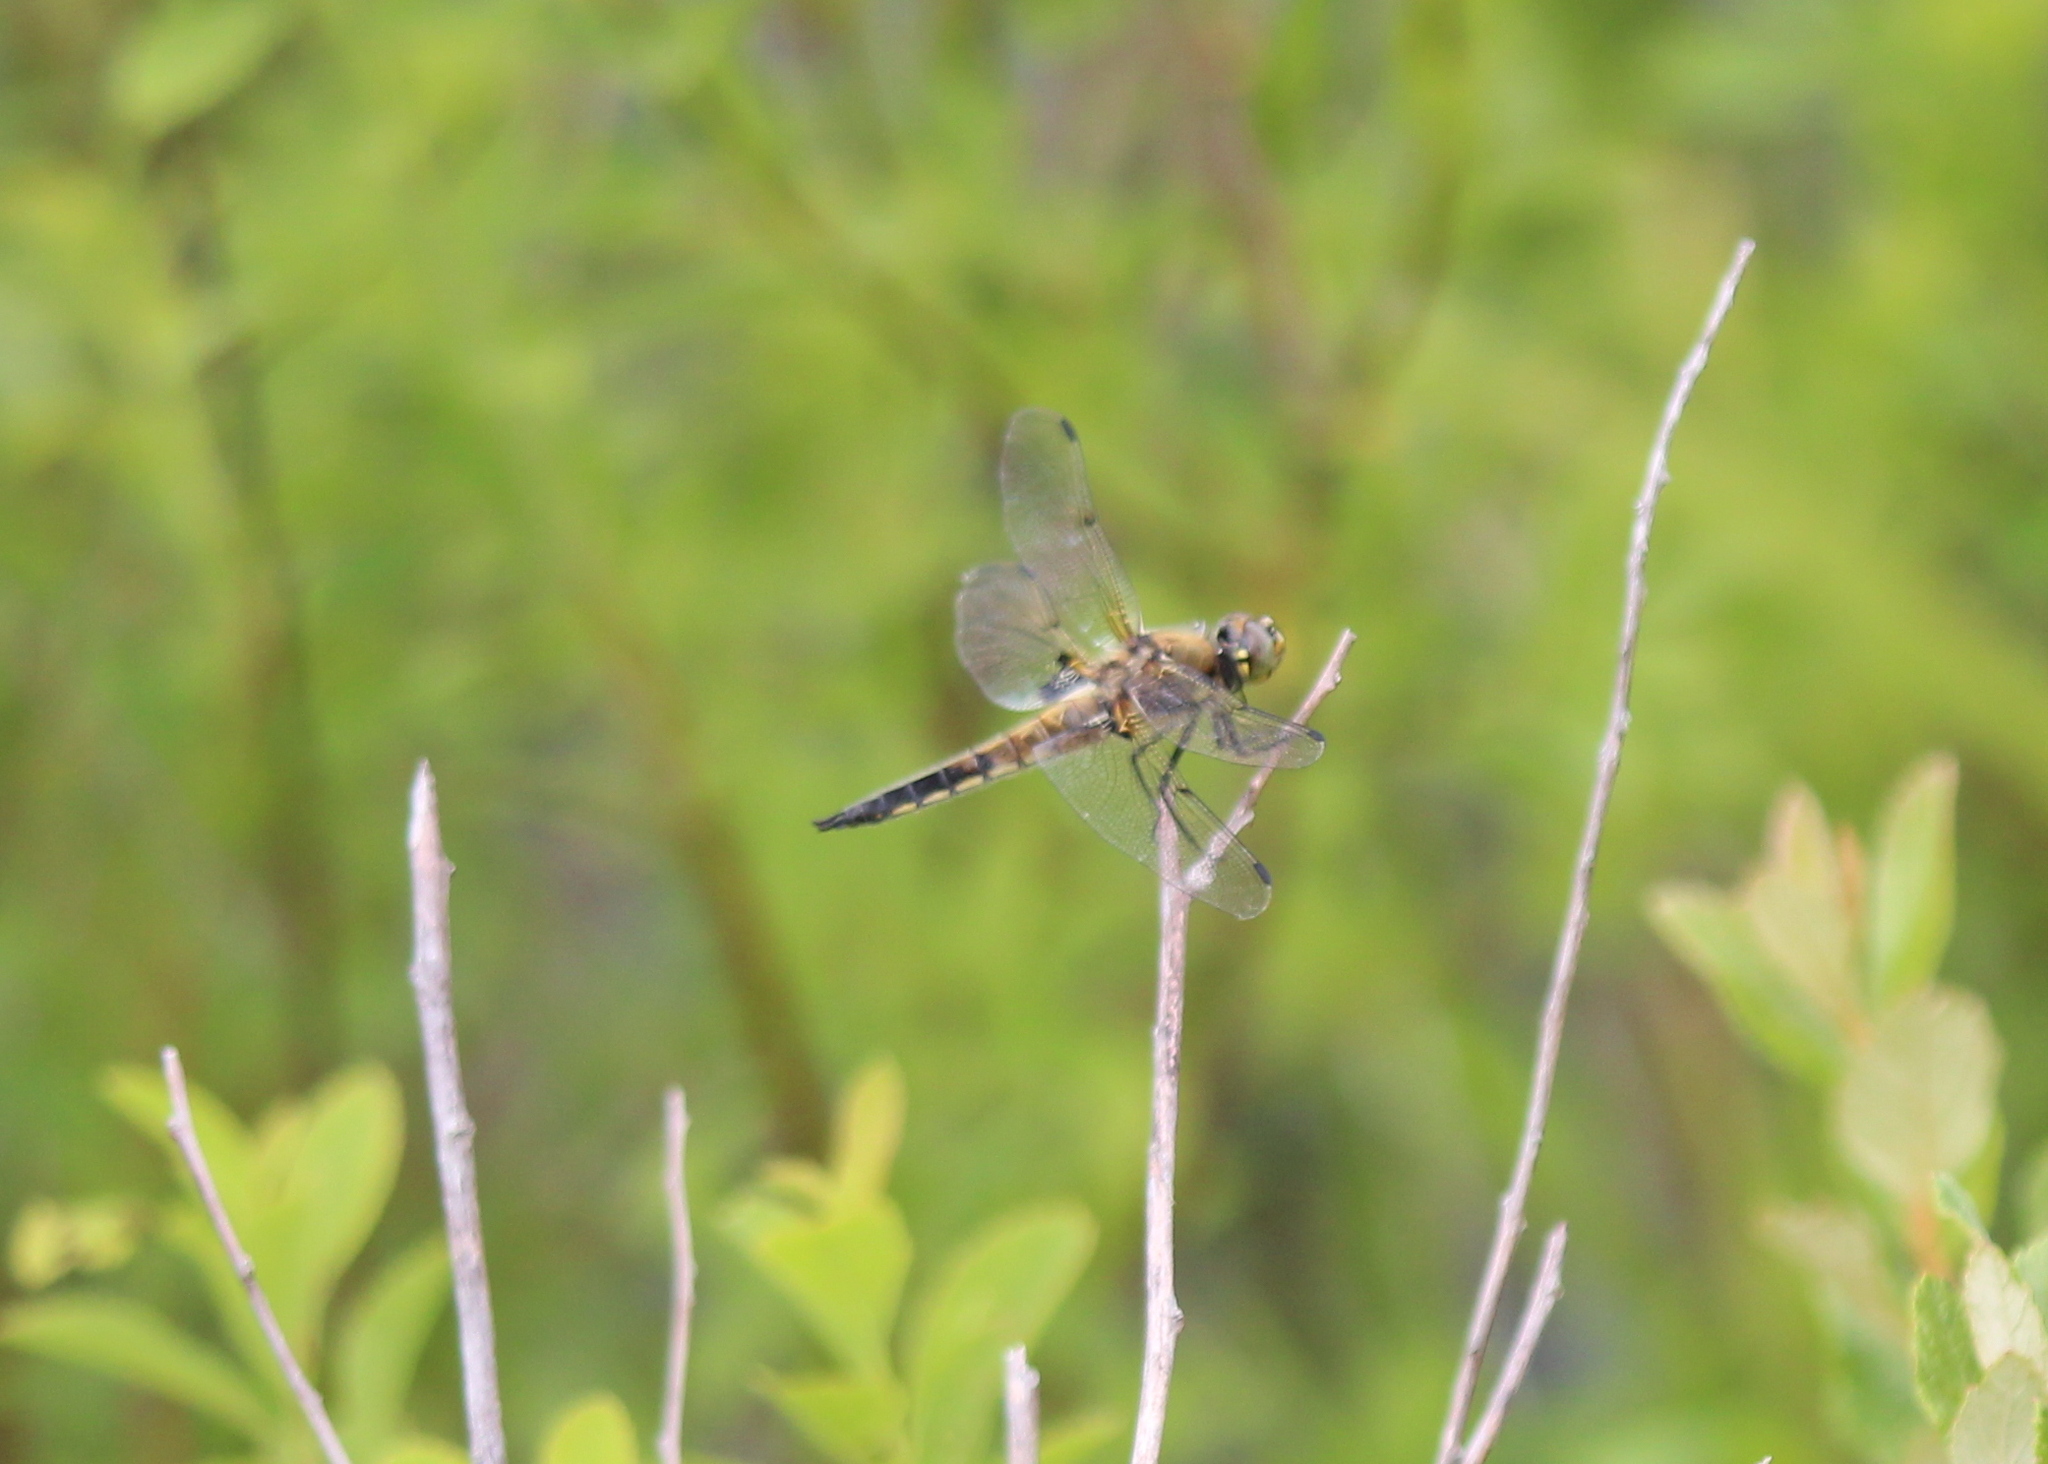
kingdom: Animalia
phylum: Arthropoda
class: Insecta
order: Odonata
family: Libellulidae
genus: Libellula
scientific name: Libellula quadrimaculata
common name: Four-spotted chaser
